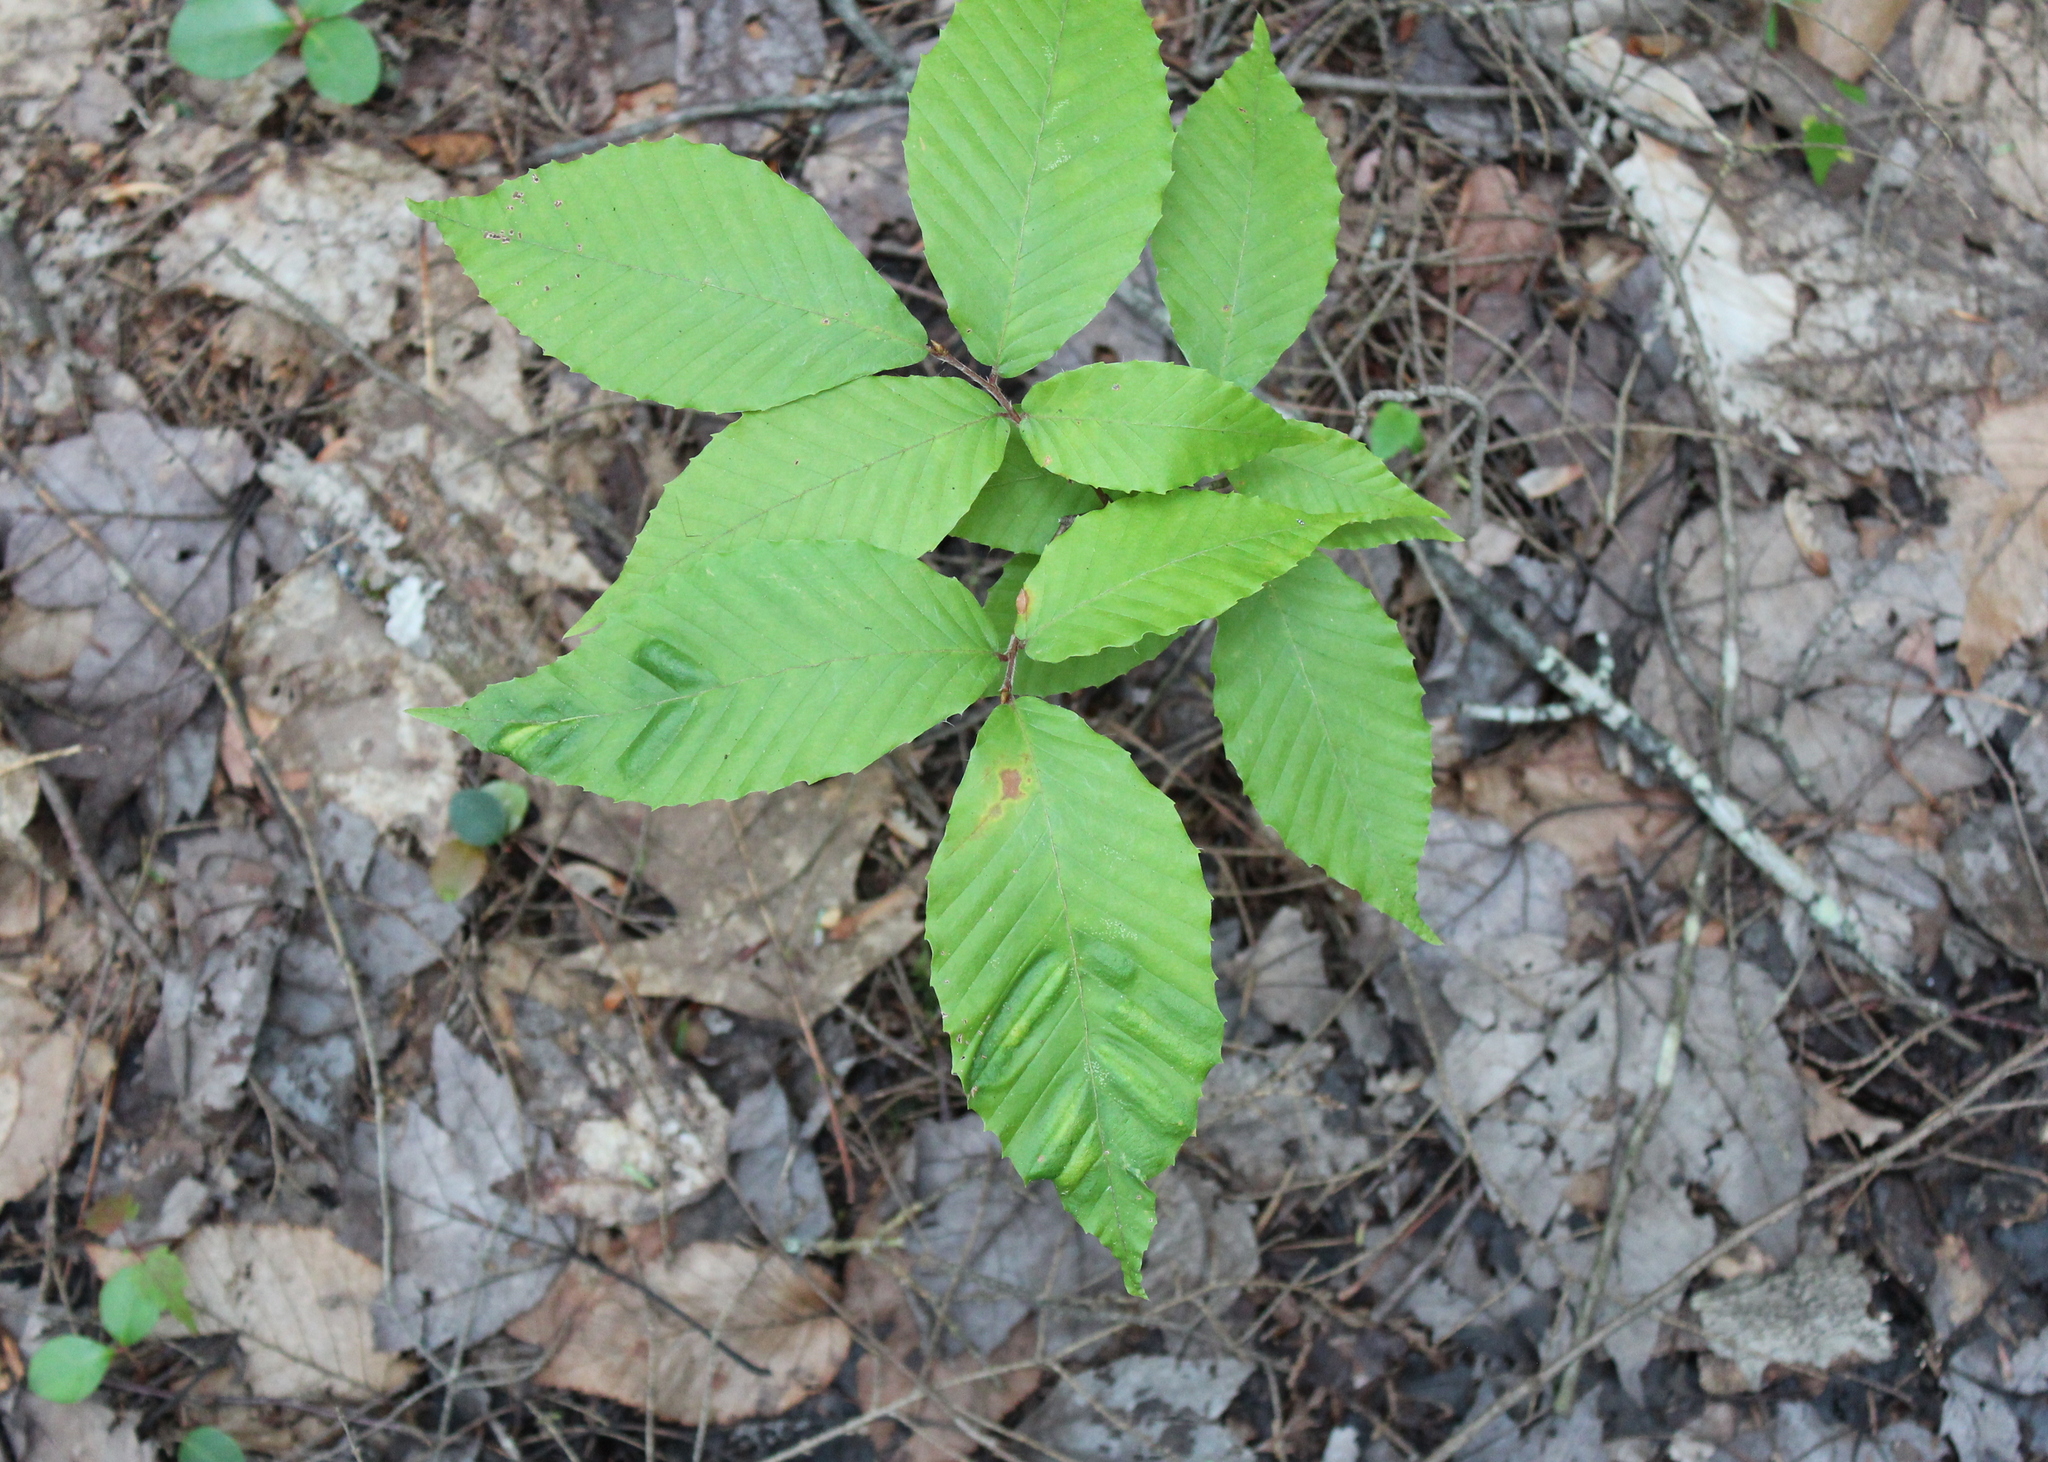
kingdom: Plantae
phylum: Tracheophyta
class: Magnoliopsida
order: Fagales
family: Fagaceae
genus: Fagus
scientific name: Fagus grandifolia
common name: American beech
